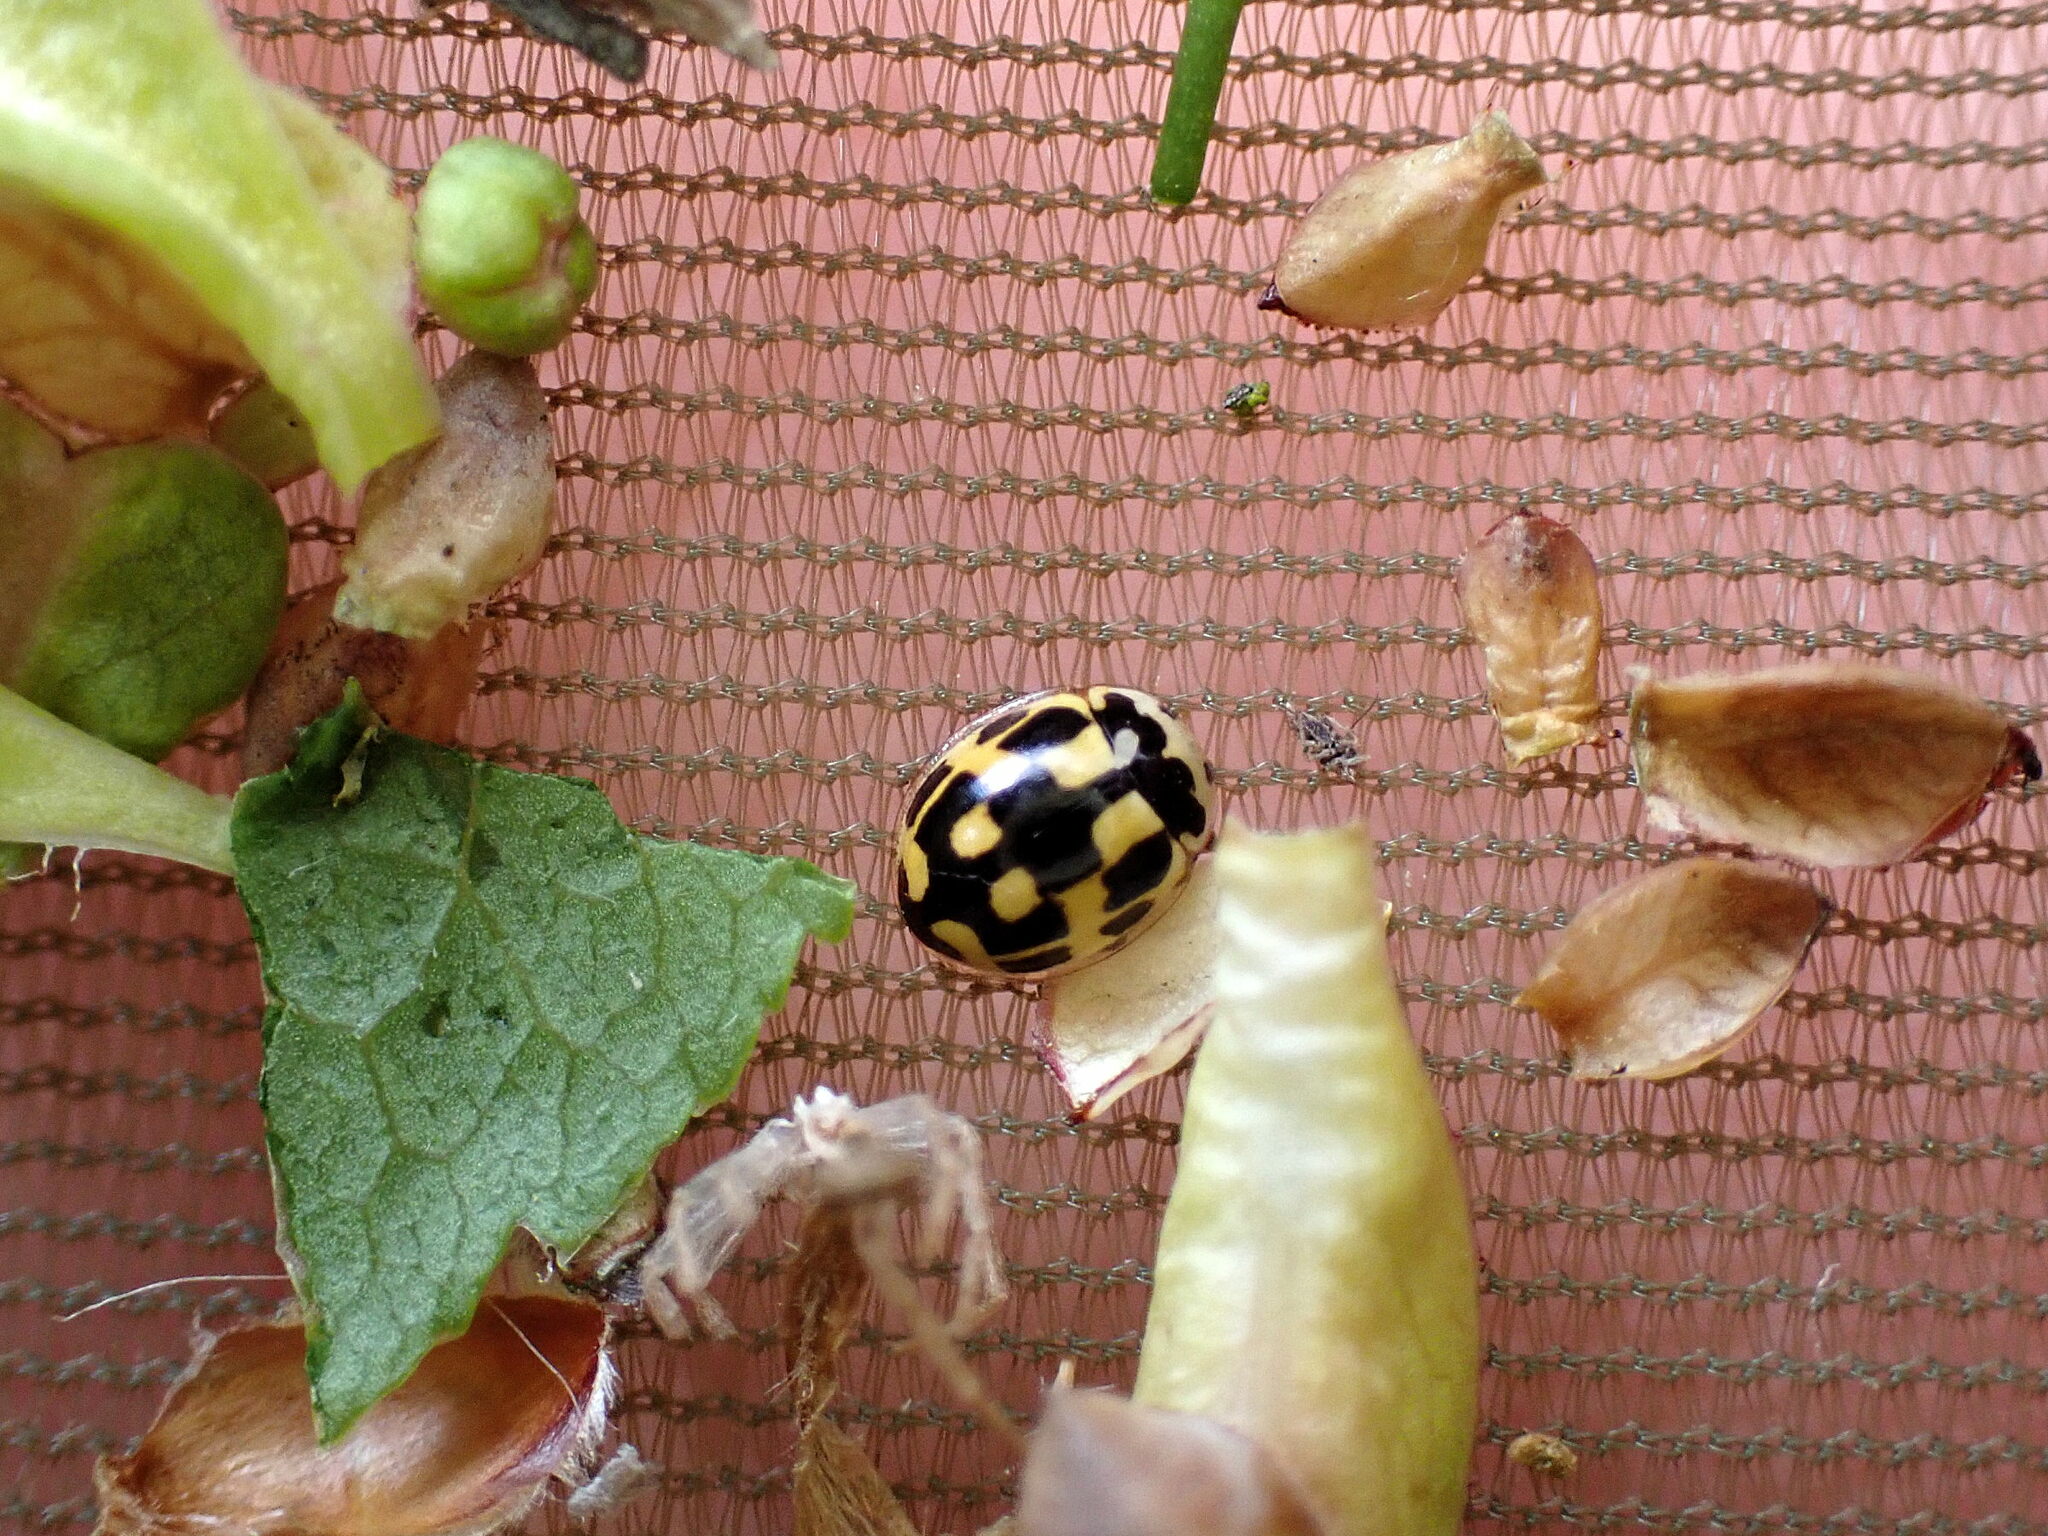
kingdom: Animalia
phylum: Arthropoda
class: Insecta
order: Coleoptera
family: Coccinellidae
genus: Propylaea
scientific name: Propylaea quatuordecimpunctata
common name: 14-spotted ladybird beetle
